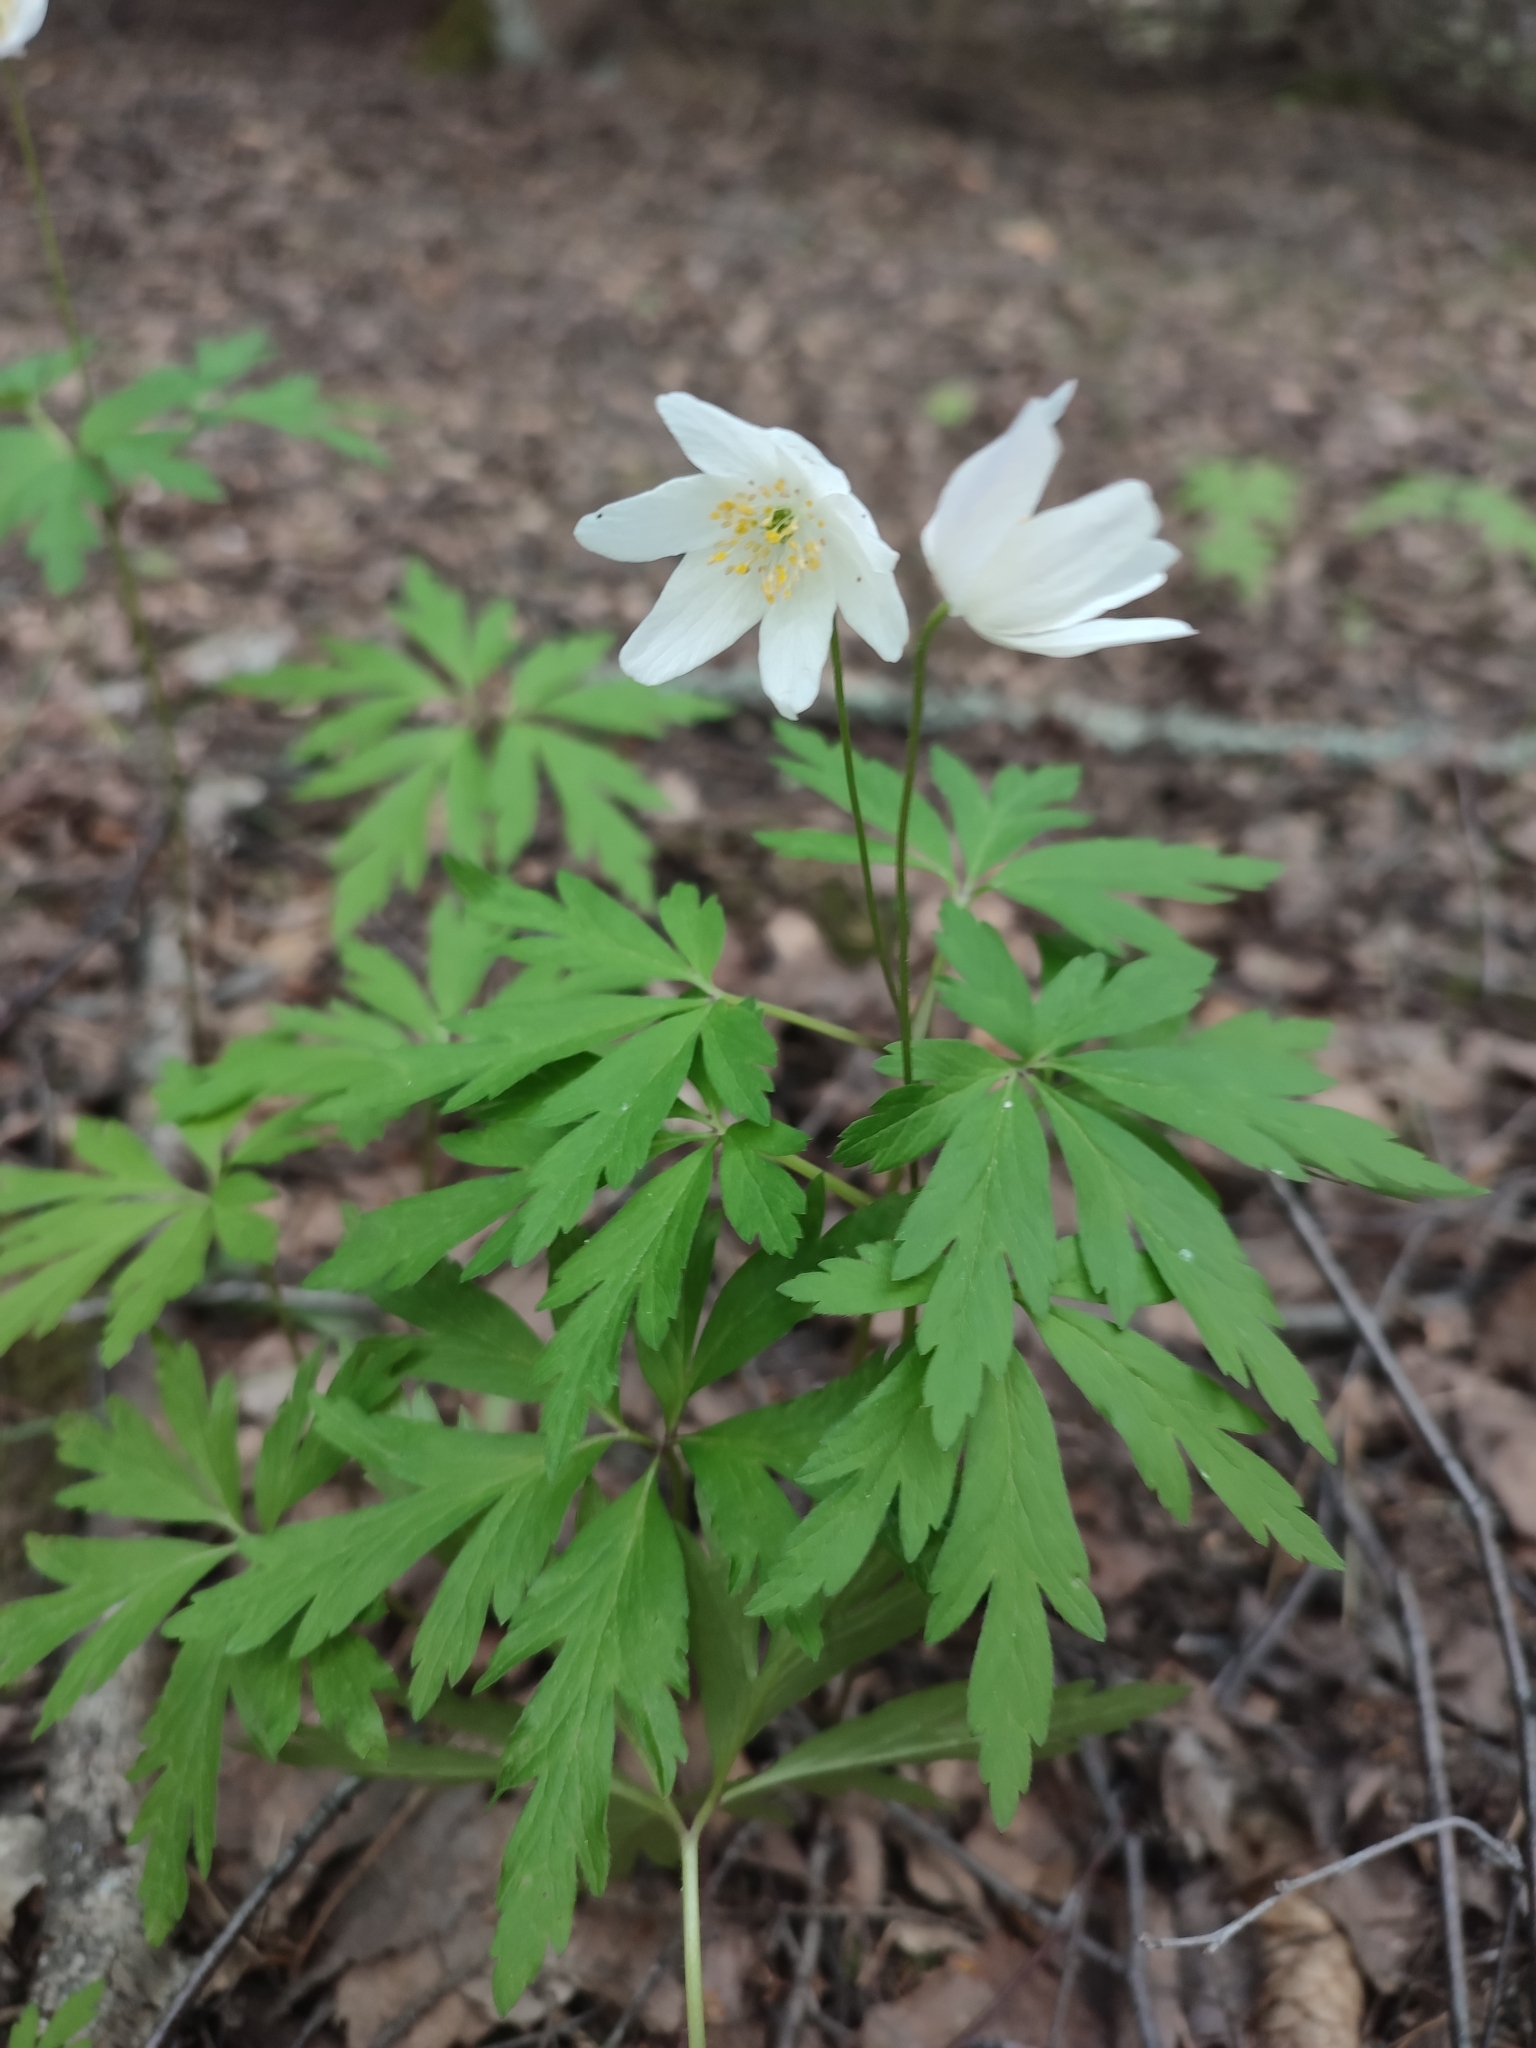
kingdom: Plantae
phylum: Tracheophyta
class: Magnoliopsida
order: Ranunculales
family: Ranunculaceae
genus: Anemone
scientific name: Anemone nemorosa
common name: Wood anemone
